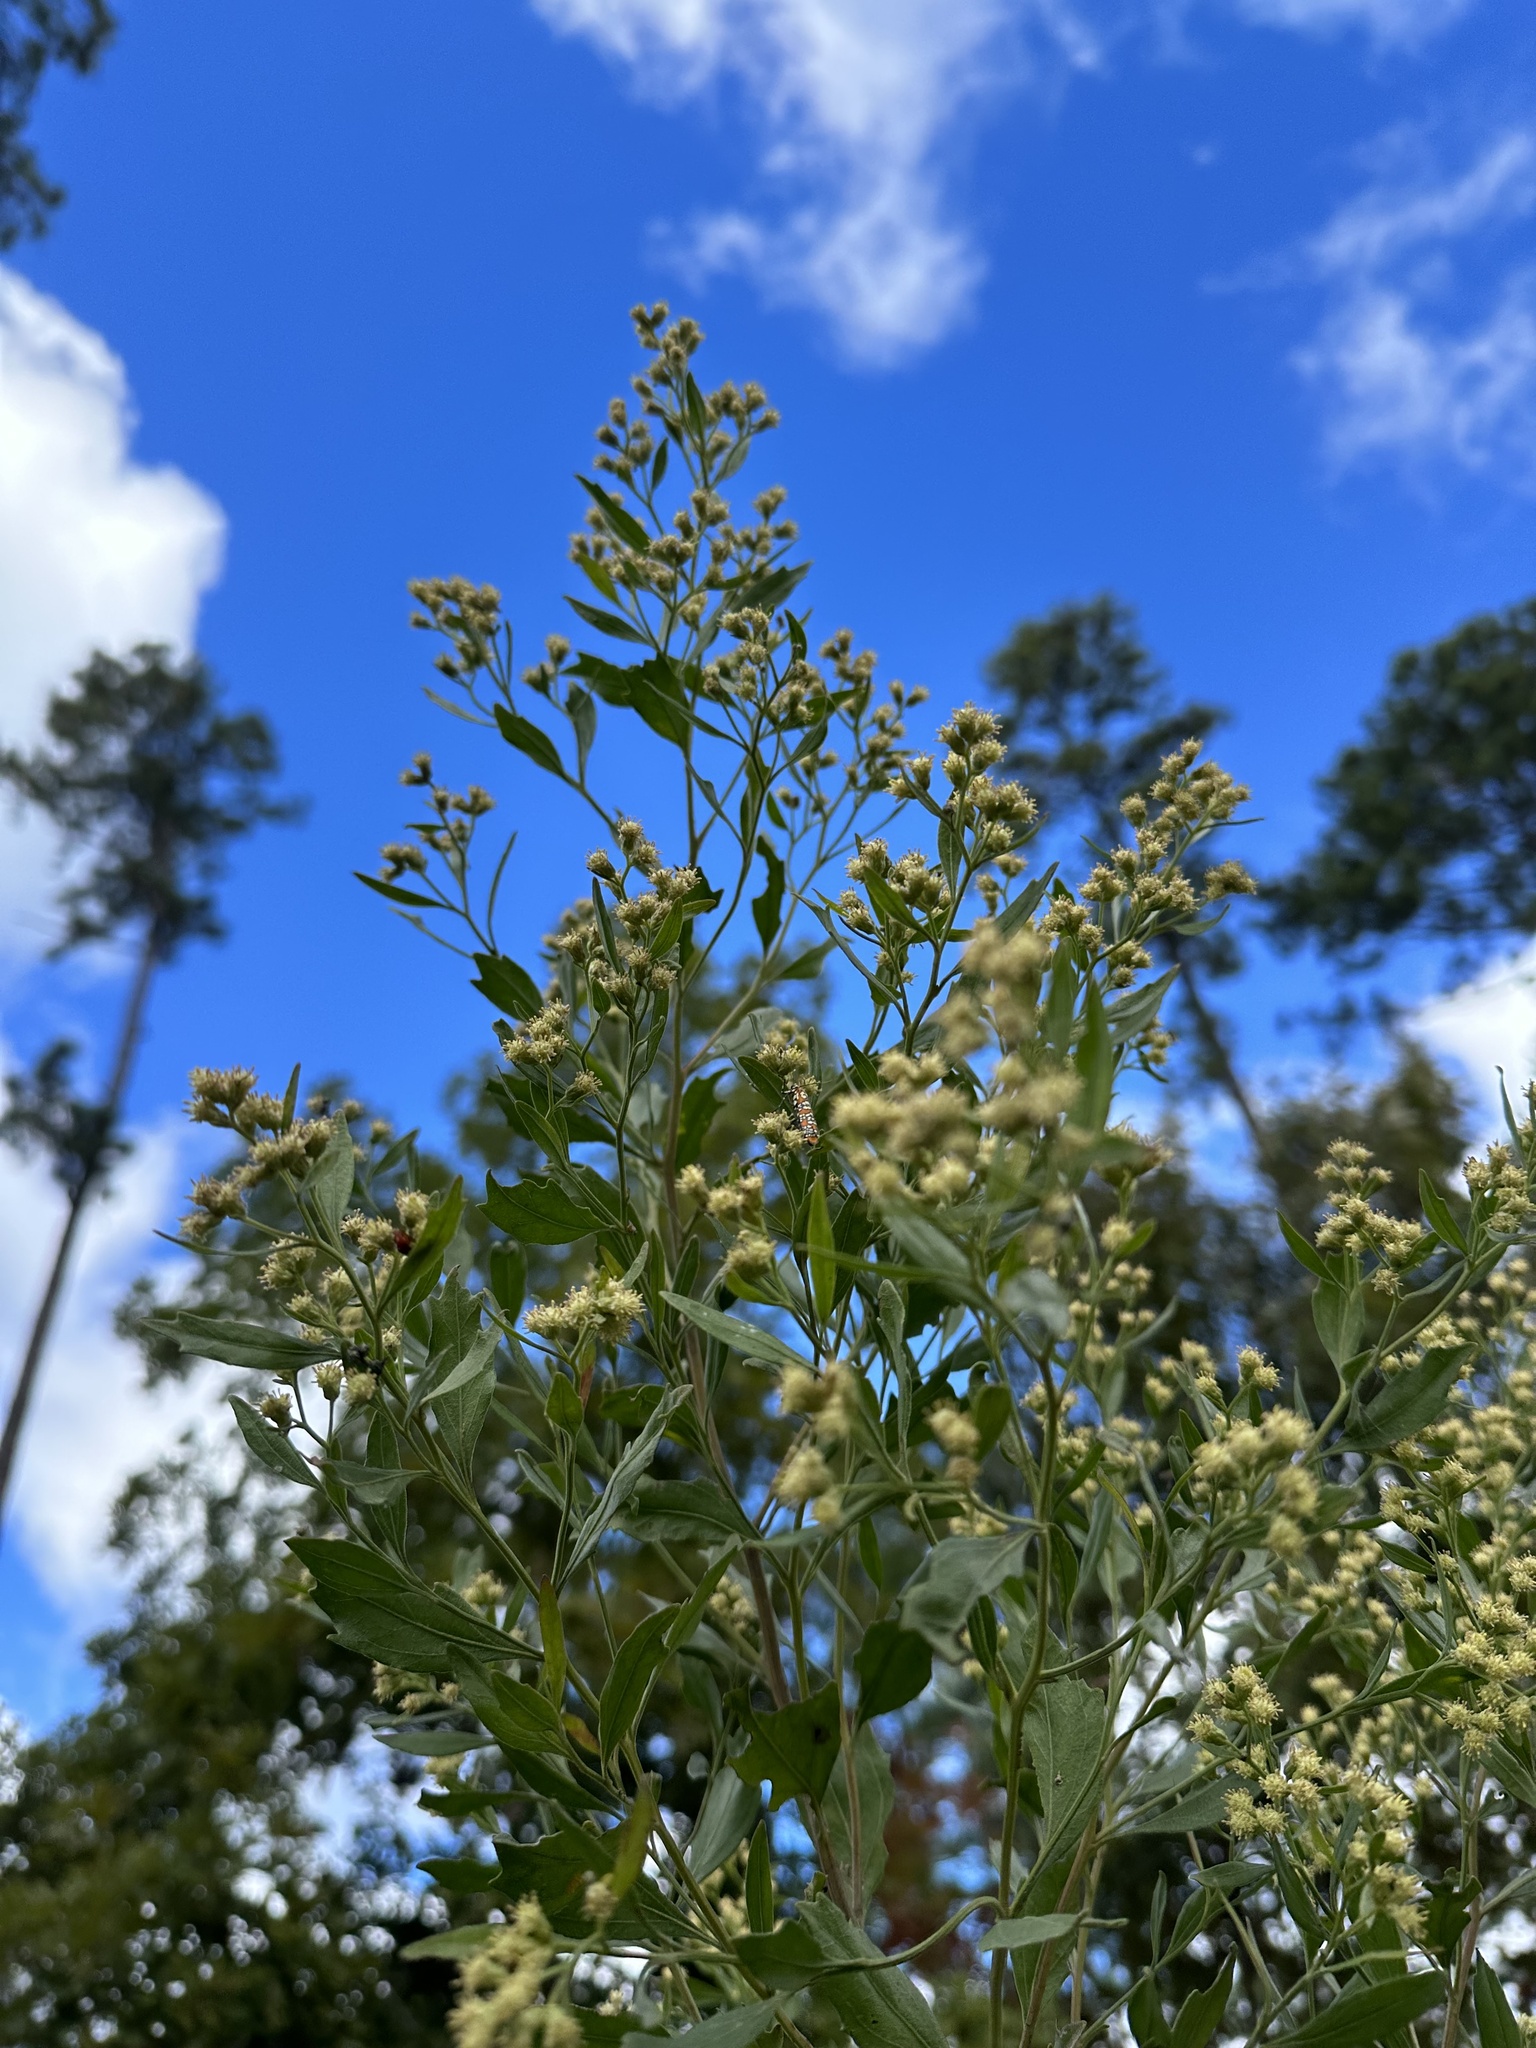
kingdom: Plantae
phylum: Tracheophyta
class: Magnoliopsida
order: Asterales
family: Asteraceae
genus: Baccharis
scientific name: Baccharis halimifolia
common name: Eastern baccharis
